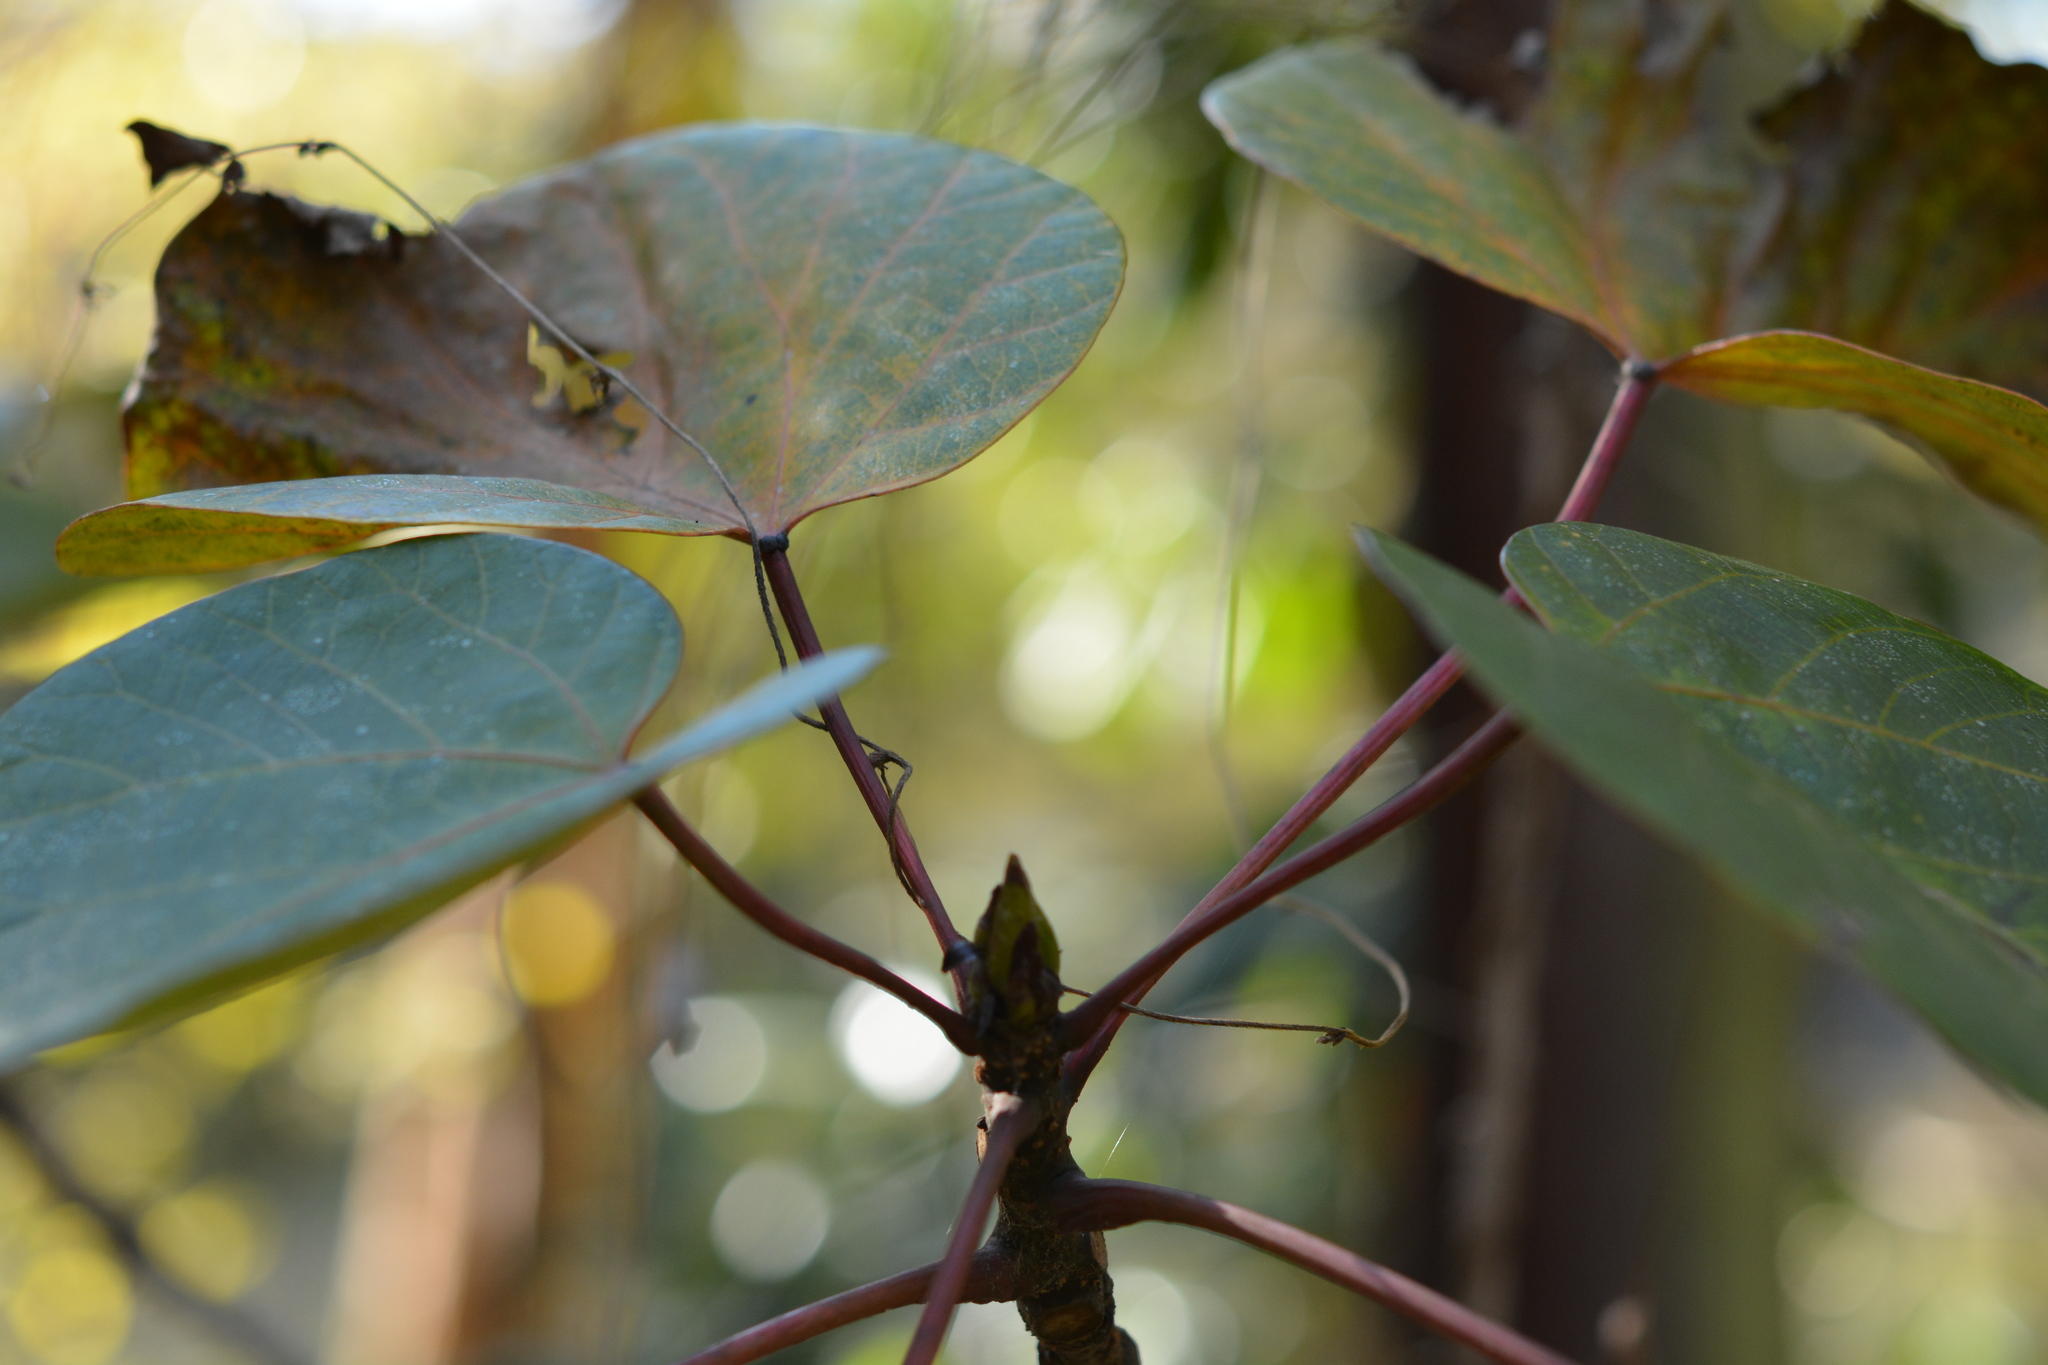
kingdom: Plantae
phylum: Tracheophyta
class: Magnoliopsida
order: Fabales
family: Fabaceae
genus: Cercis
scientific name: Cercis canadensis
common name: Eastern redbud
